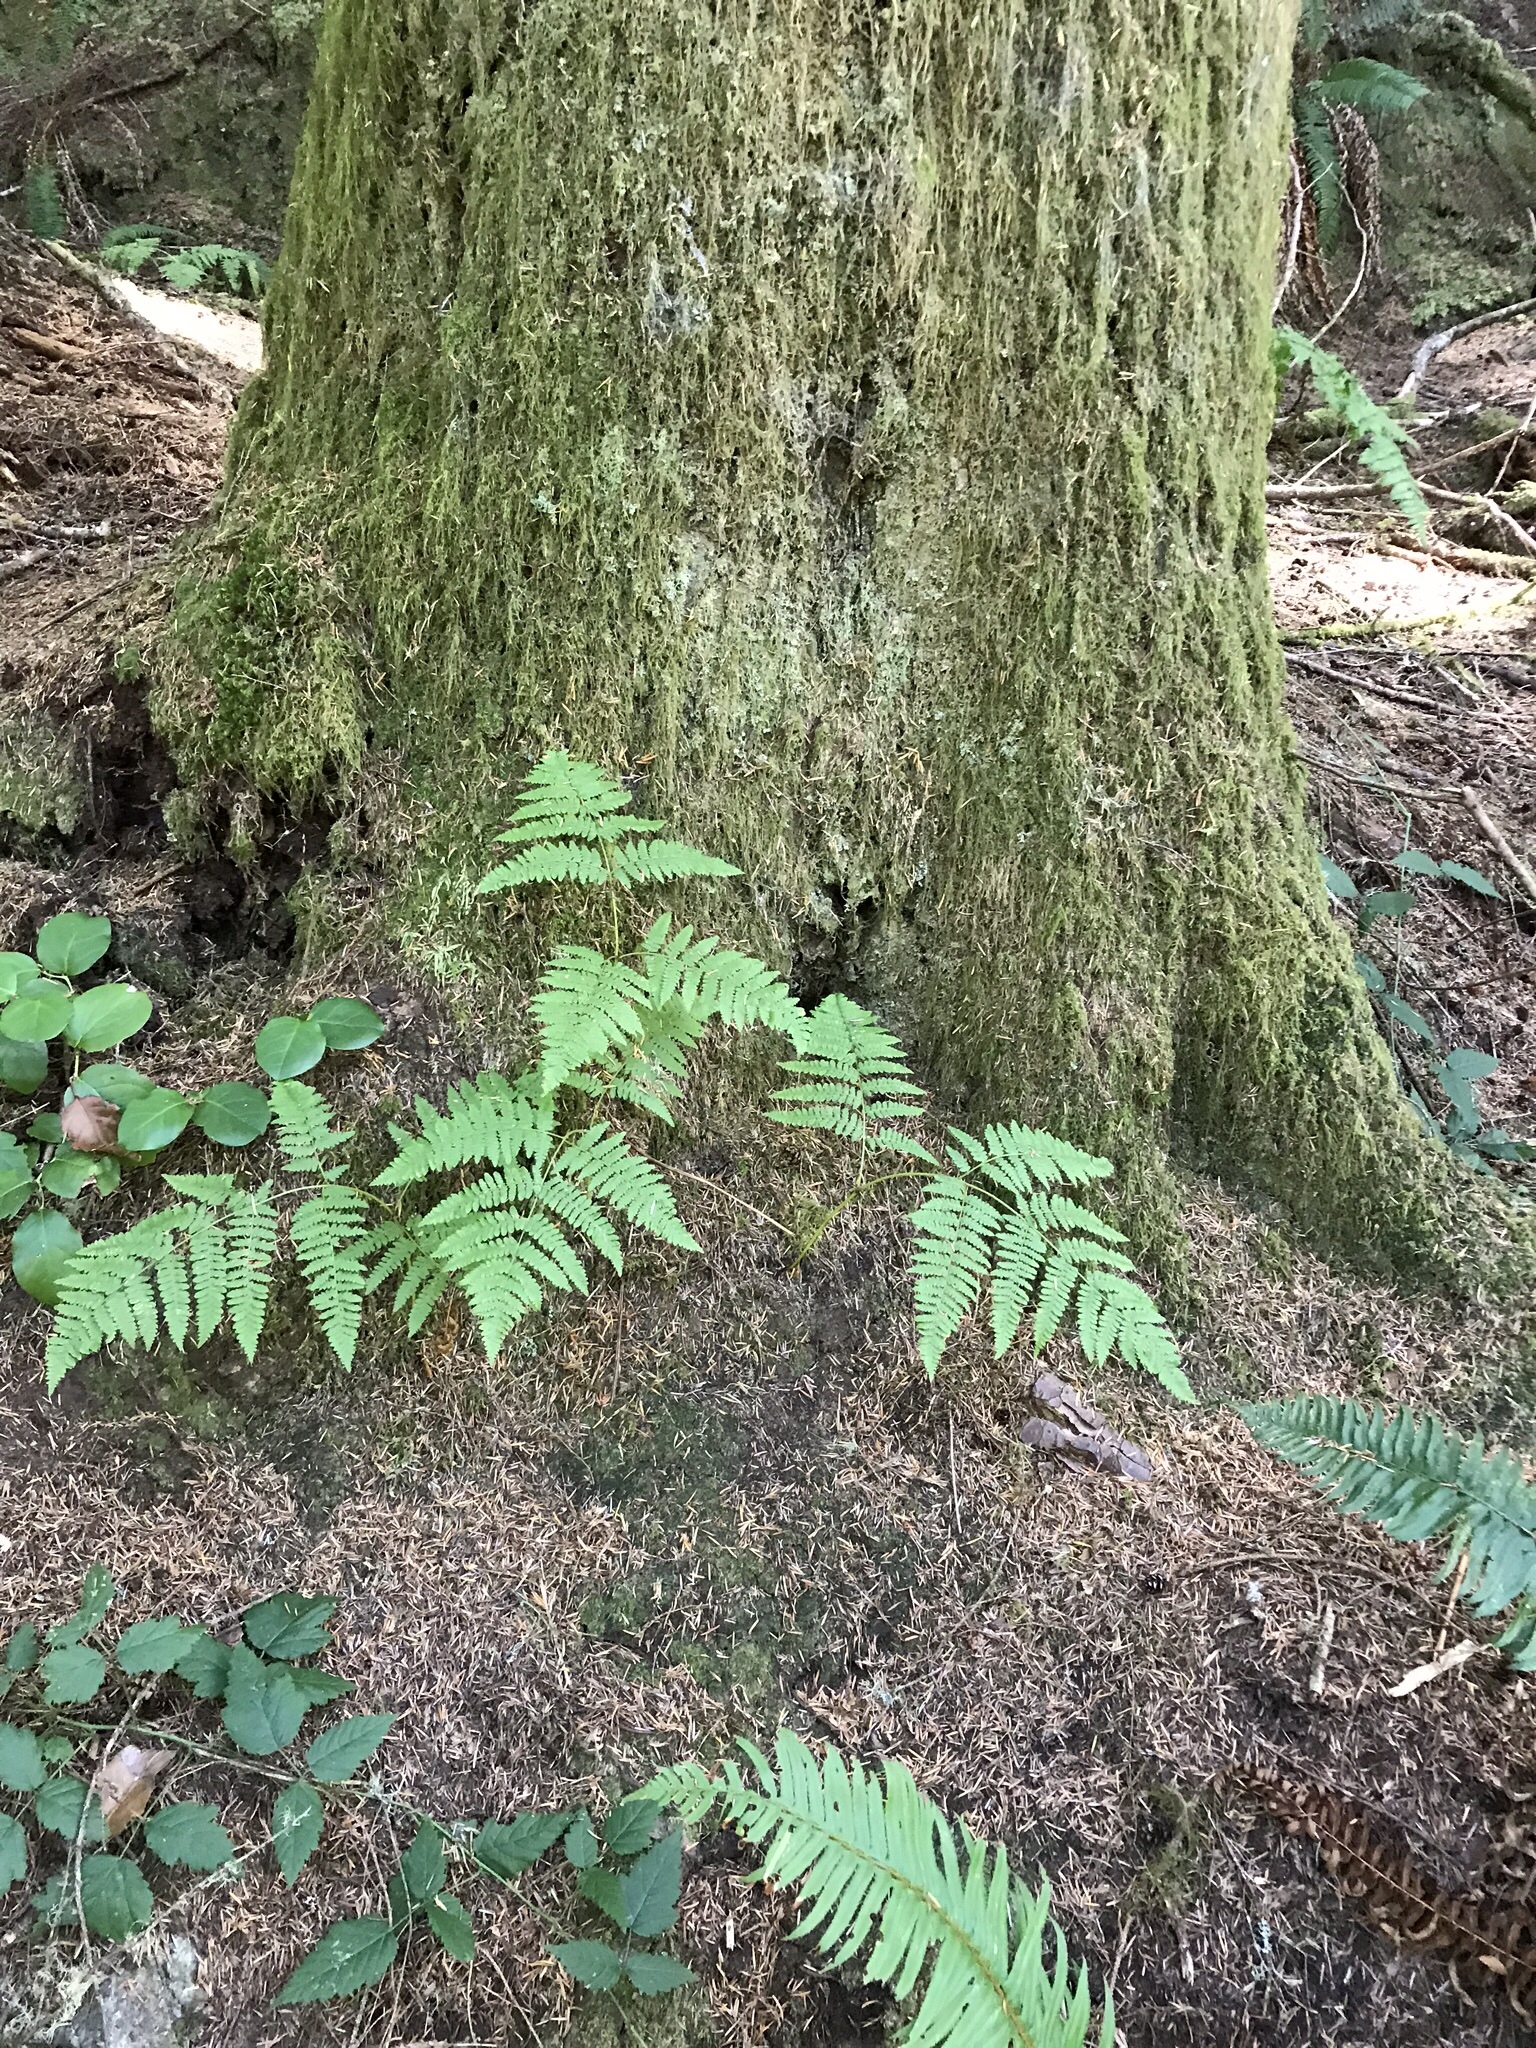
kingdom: Plantae
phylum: Tracheophyta
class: Polypodiopsida
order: Polypodiales
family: Dennstaedtiaceae
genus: Pteridium
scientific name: Pteridium aquilinum
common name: Bracken
